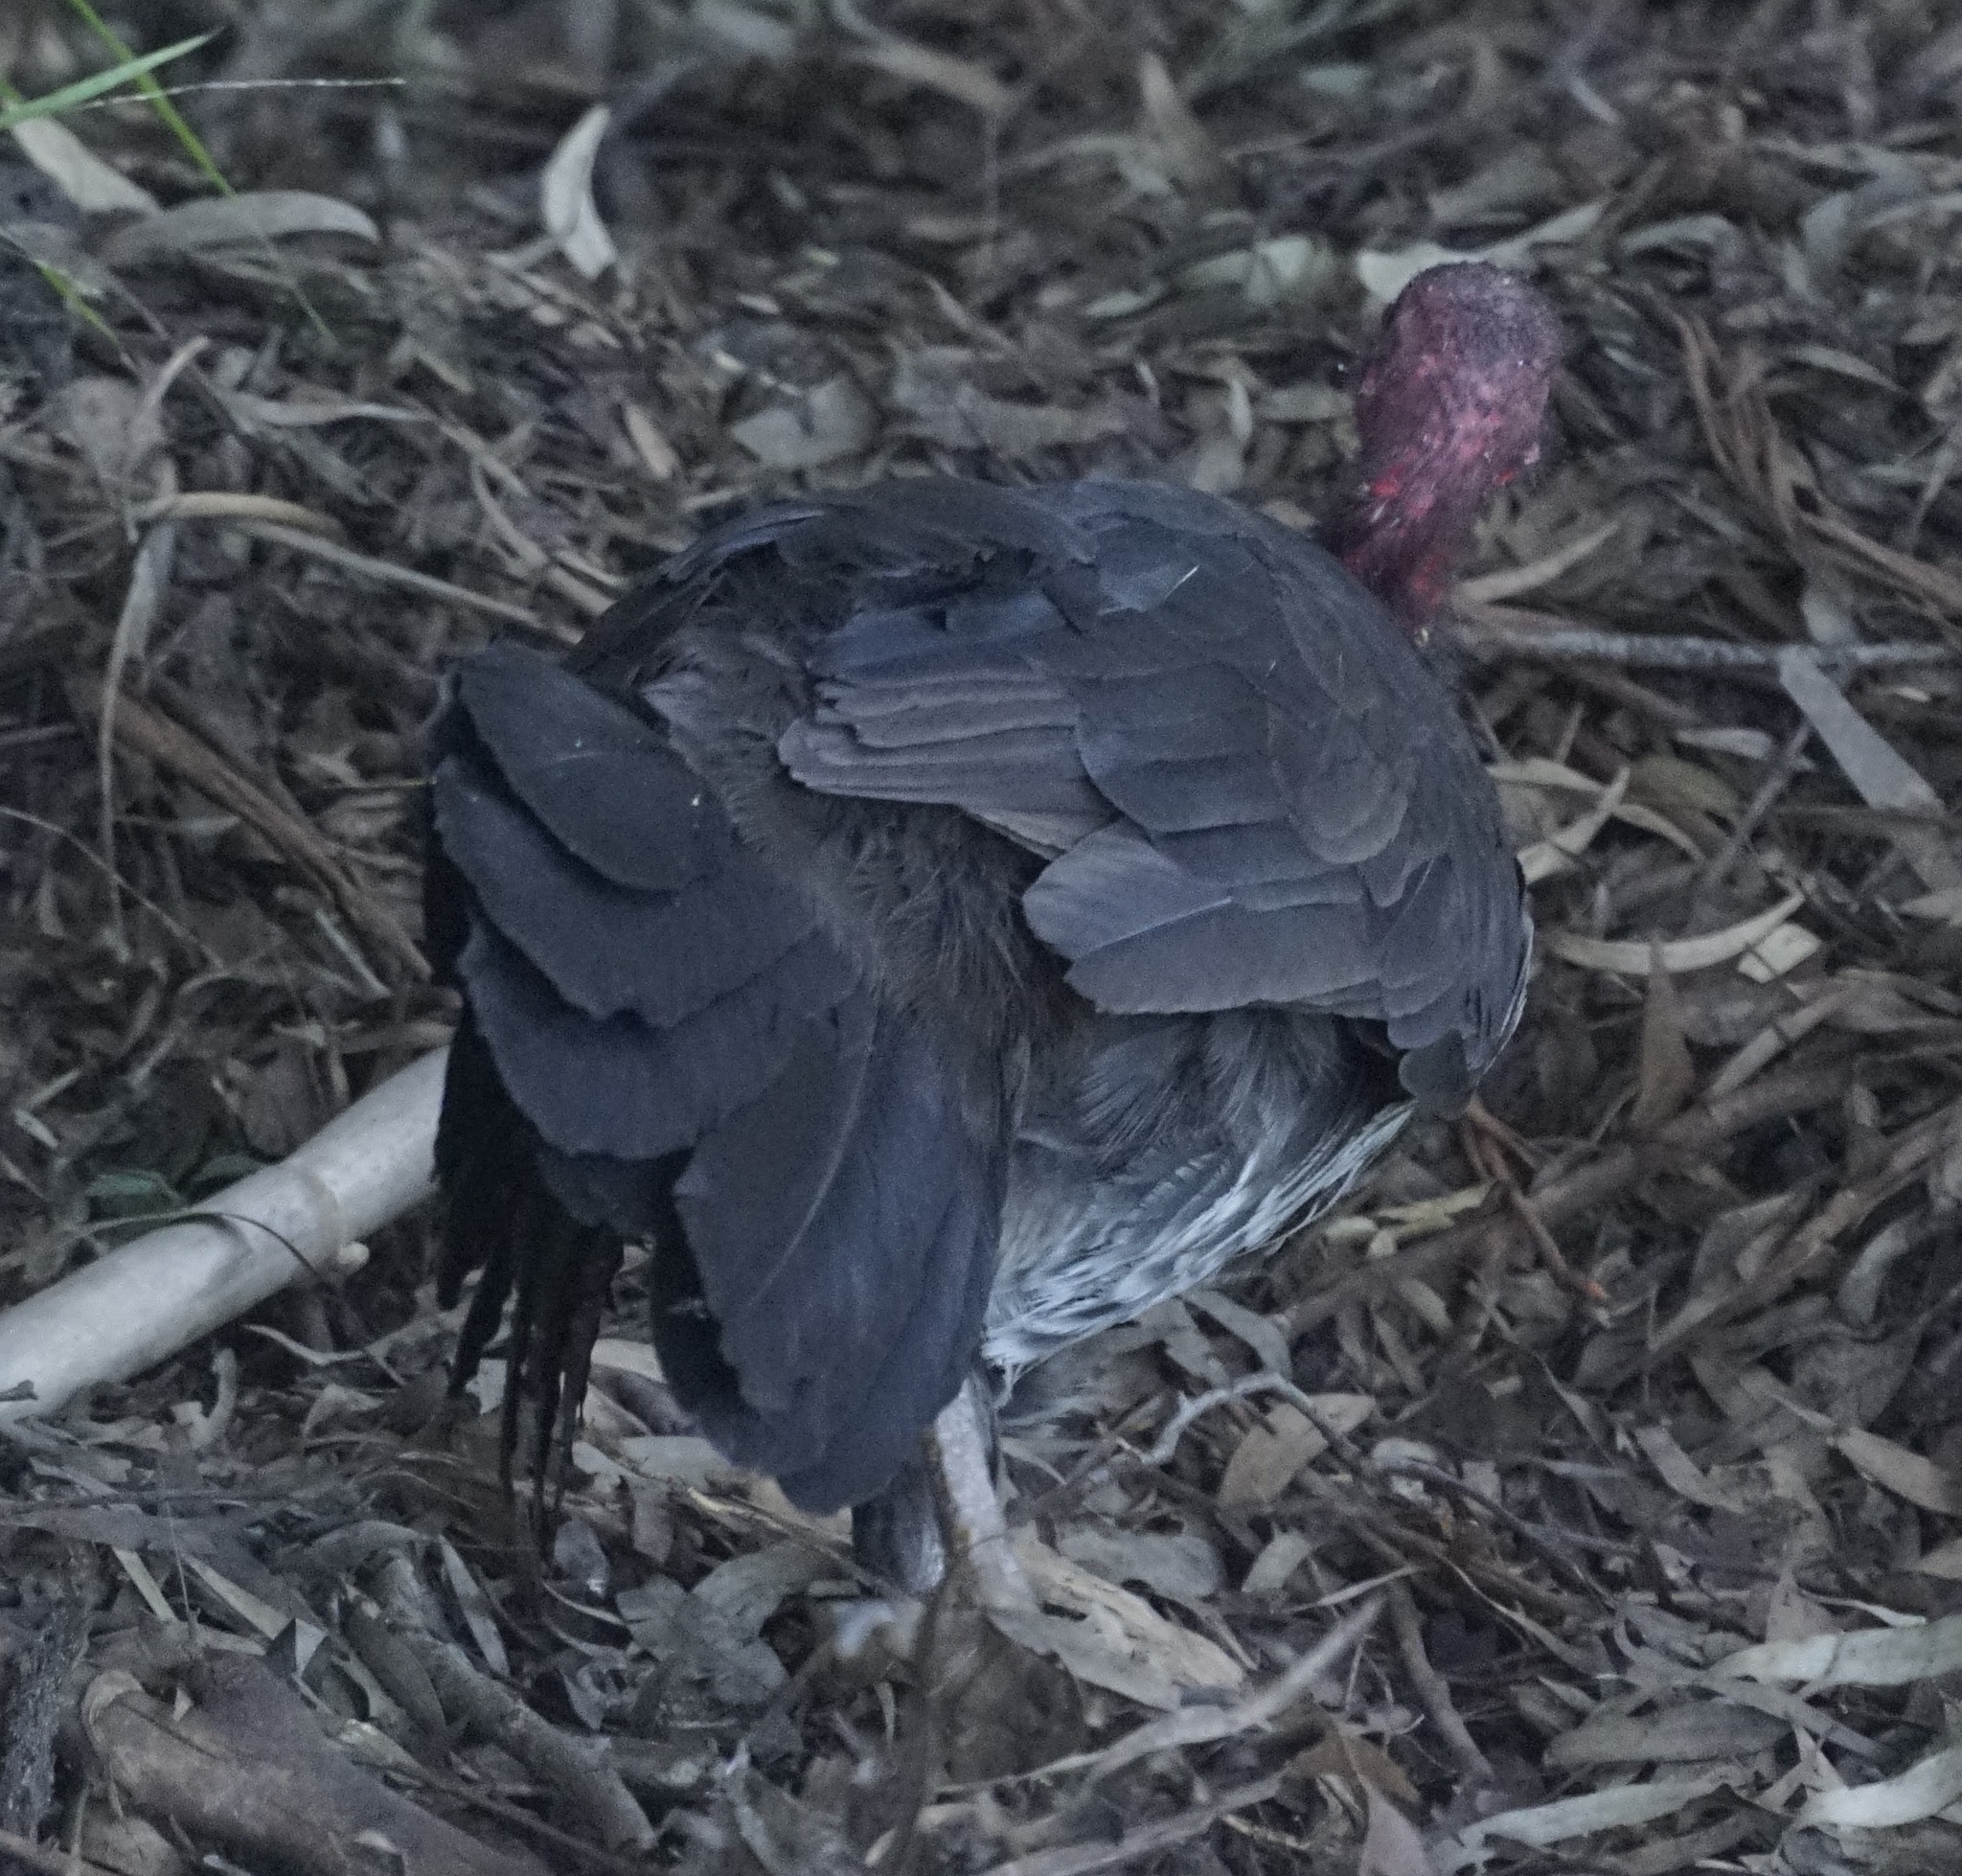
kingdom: Animalia
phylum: Chordata
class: Aves
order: Galliformes
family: Megapodiidae
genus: Alectura
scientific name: Alectura lathami
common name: Australian brushturkey
